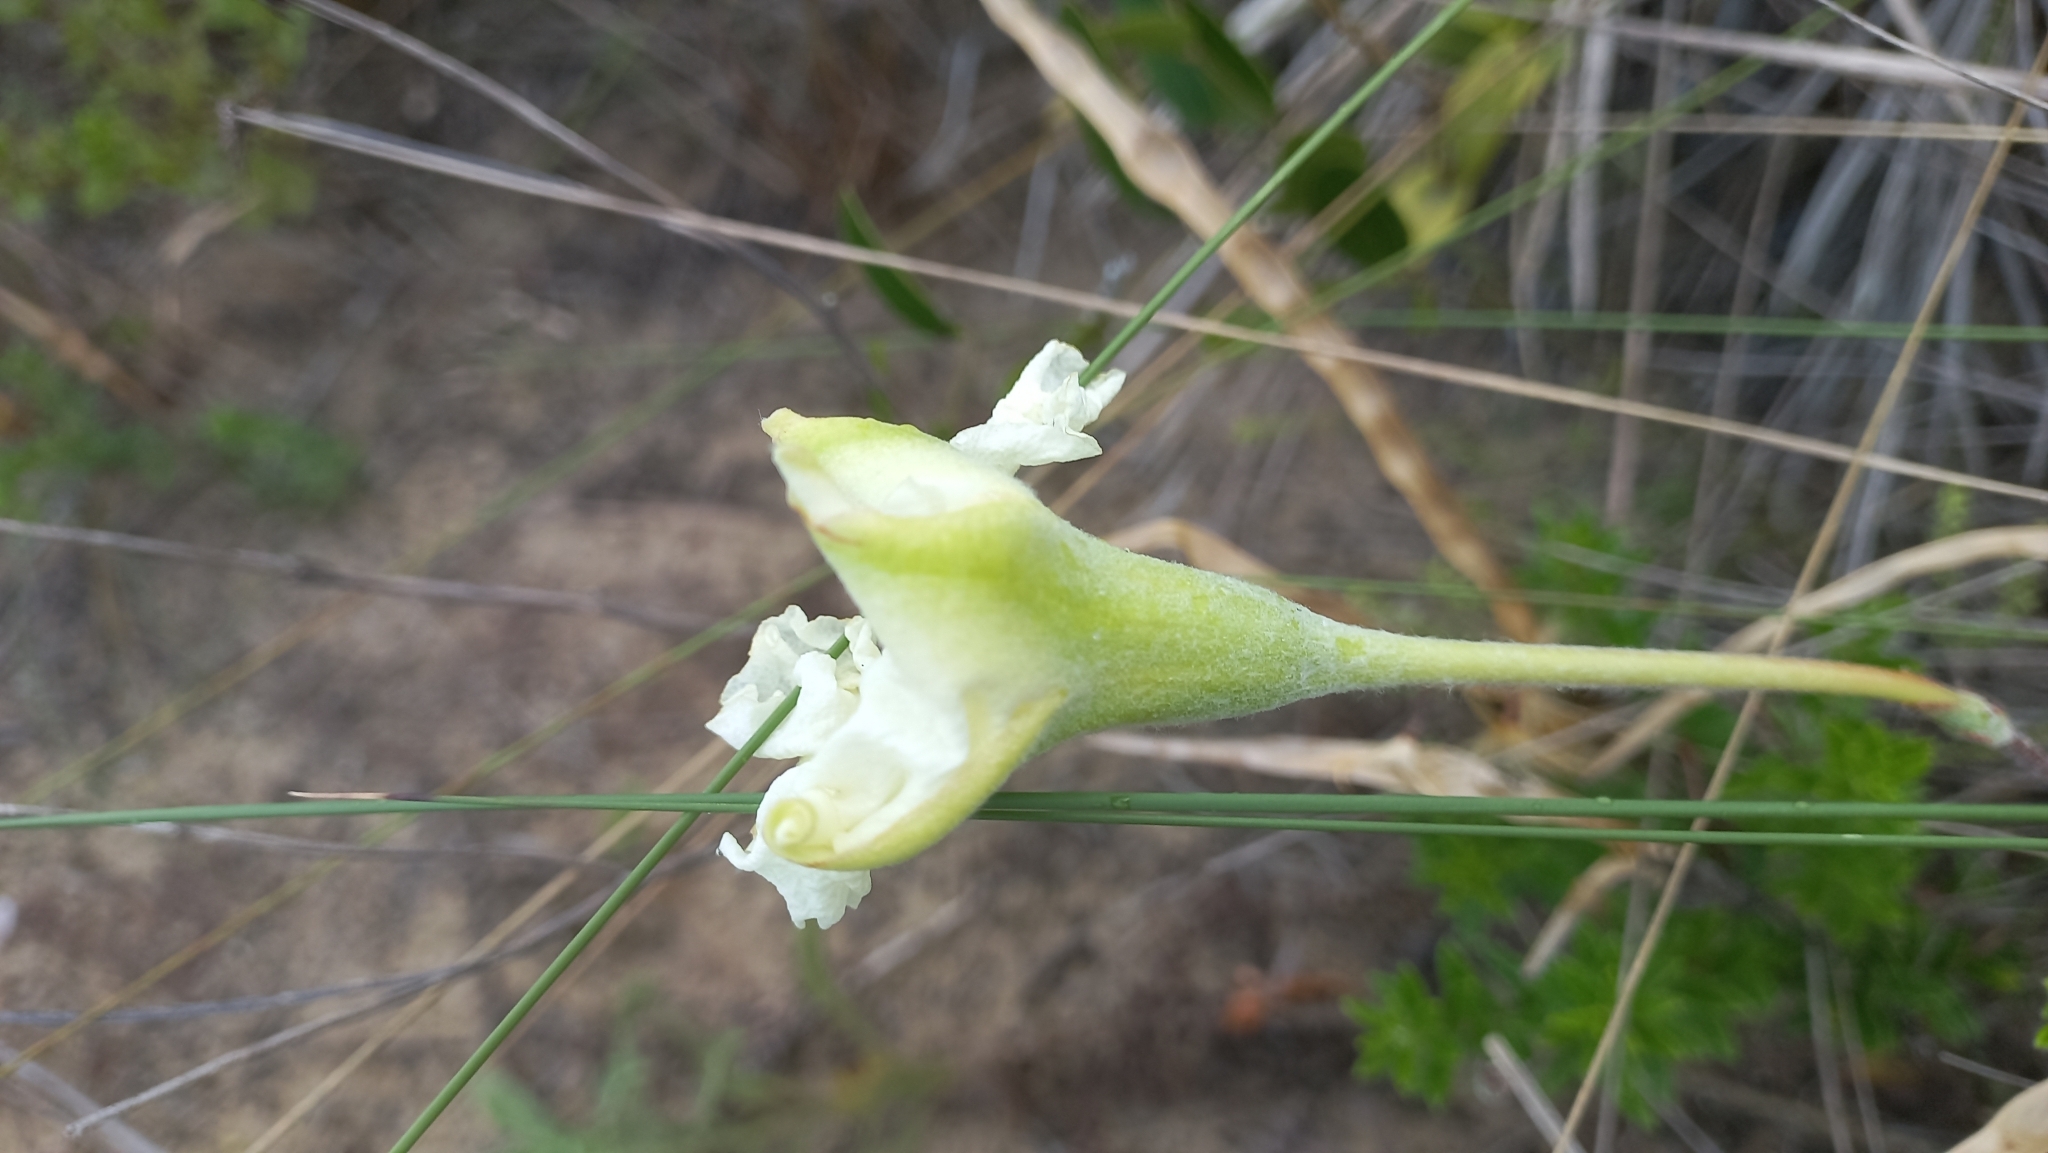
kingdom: Plantae
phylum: Tracheophyta
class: Magnoliopsida
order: Gentianales
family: Apocynaceae
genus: Mandevilla
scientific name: Mandevilla petraea
